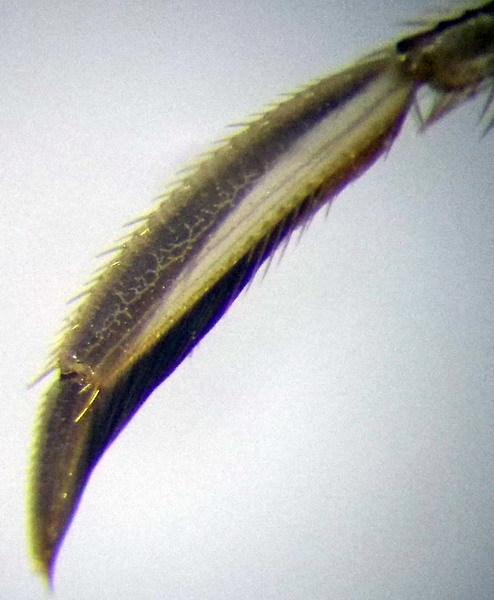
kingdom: Animalia
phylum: Arthropoda
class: Insecta
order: Hemiptera
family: Corixidae
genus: Sigara
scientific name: Sigara striata
